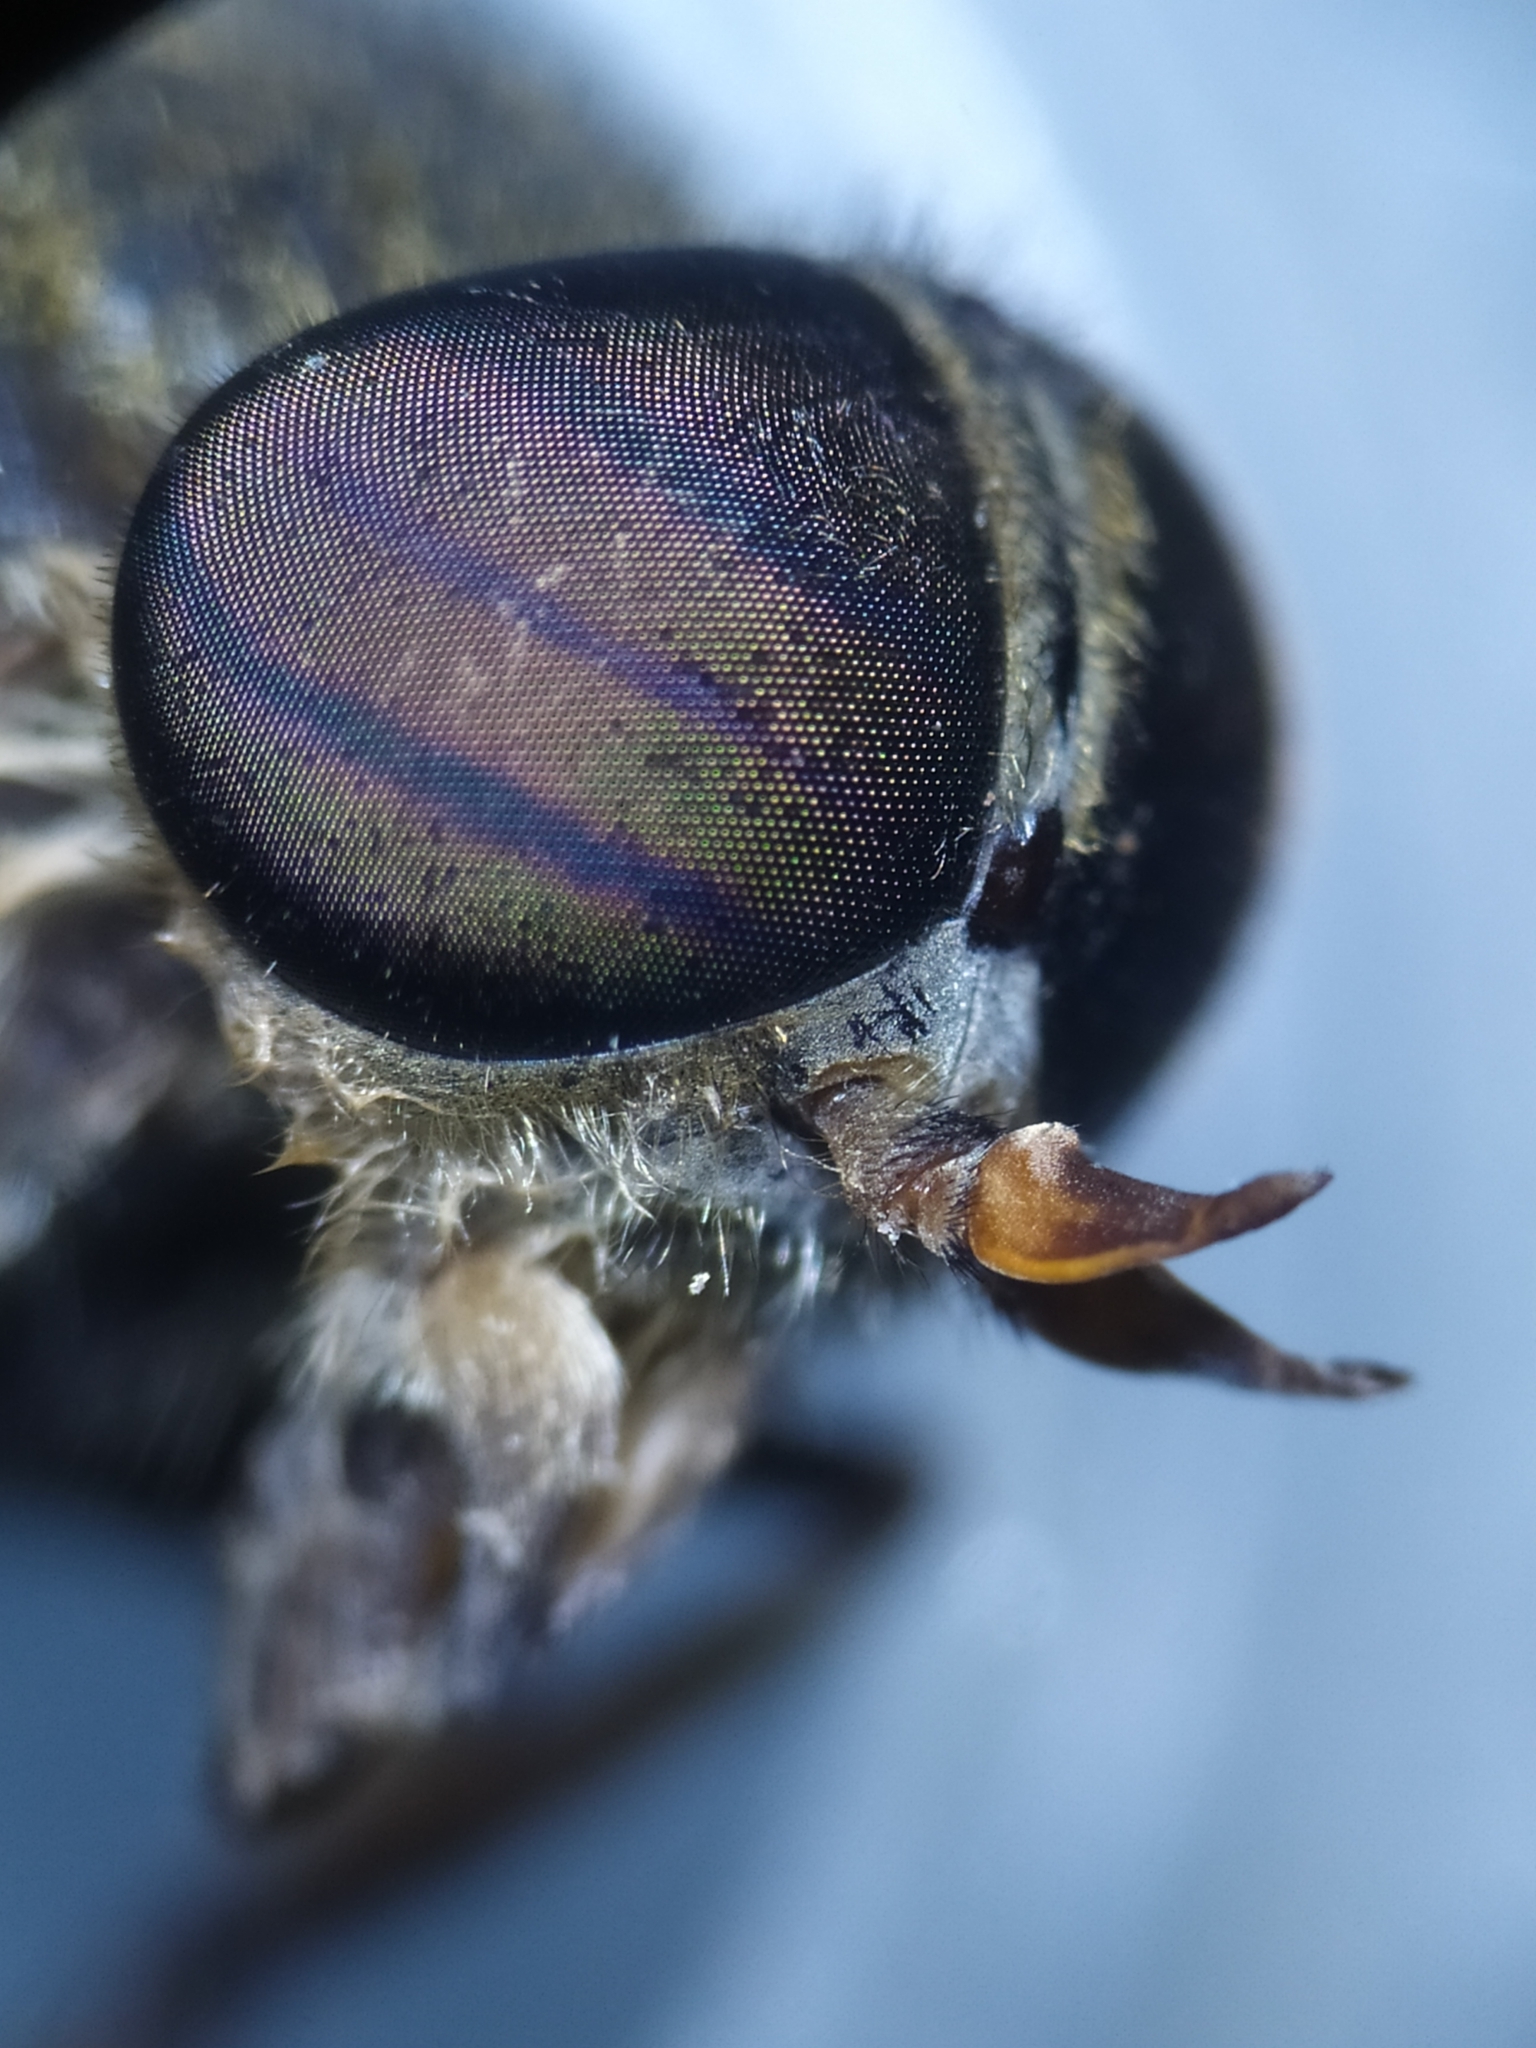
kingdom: Animalia
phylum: Arthropoda
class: Insecta
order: Diptera
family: Tabanidae
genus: Hybomitra
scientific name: Hybomitra distinguenda
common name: Bright horsefly
